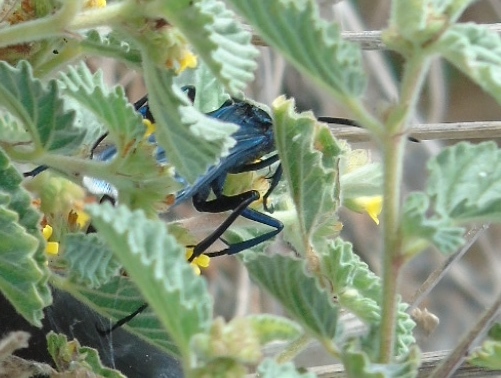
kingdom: Animalia
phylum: Arthropoda
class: Insecta
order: Hymenoptera
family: Pompilidae
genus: Pepsis
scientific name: Pepsis mexicana
